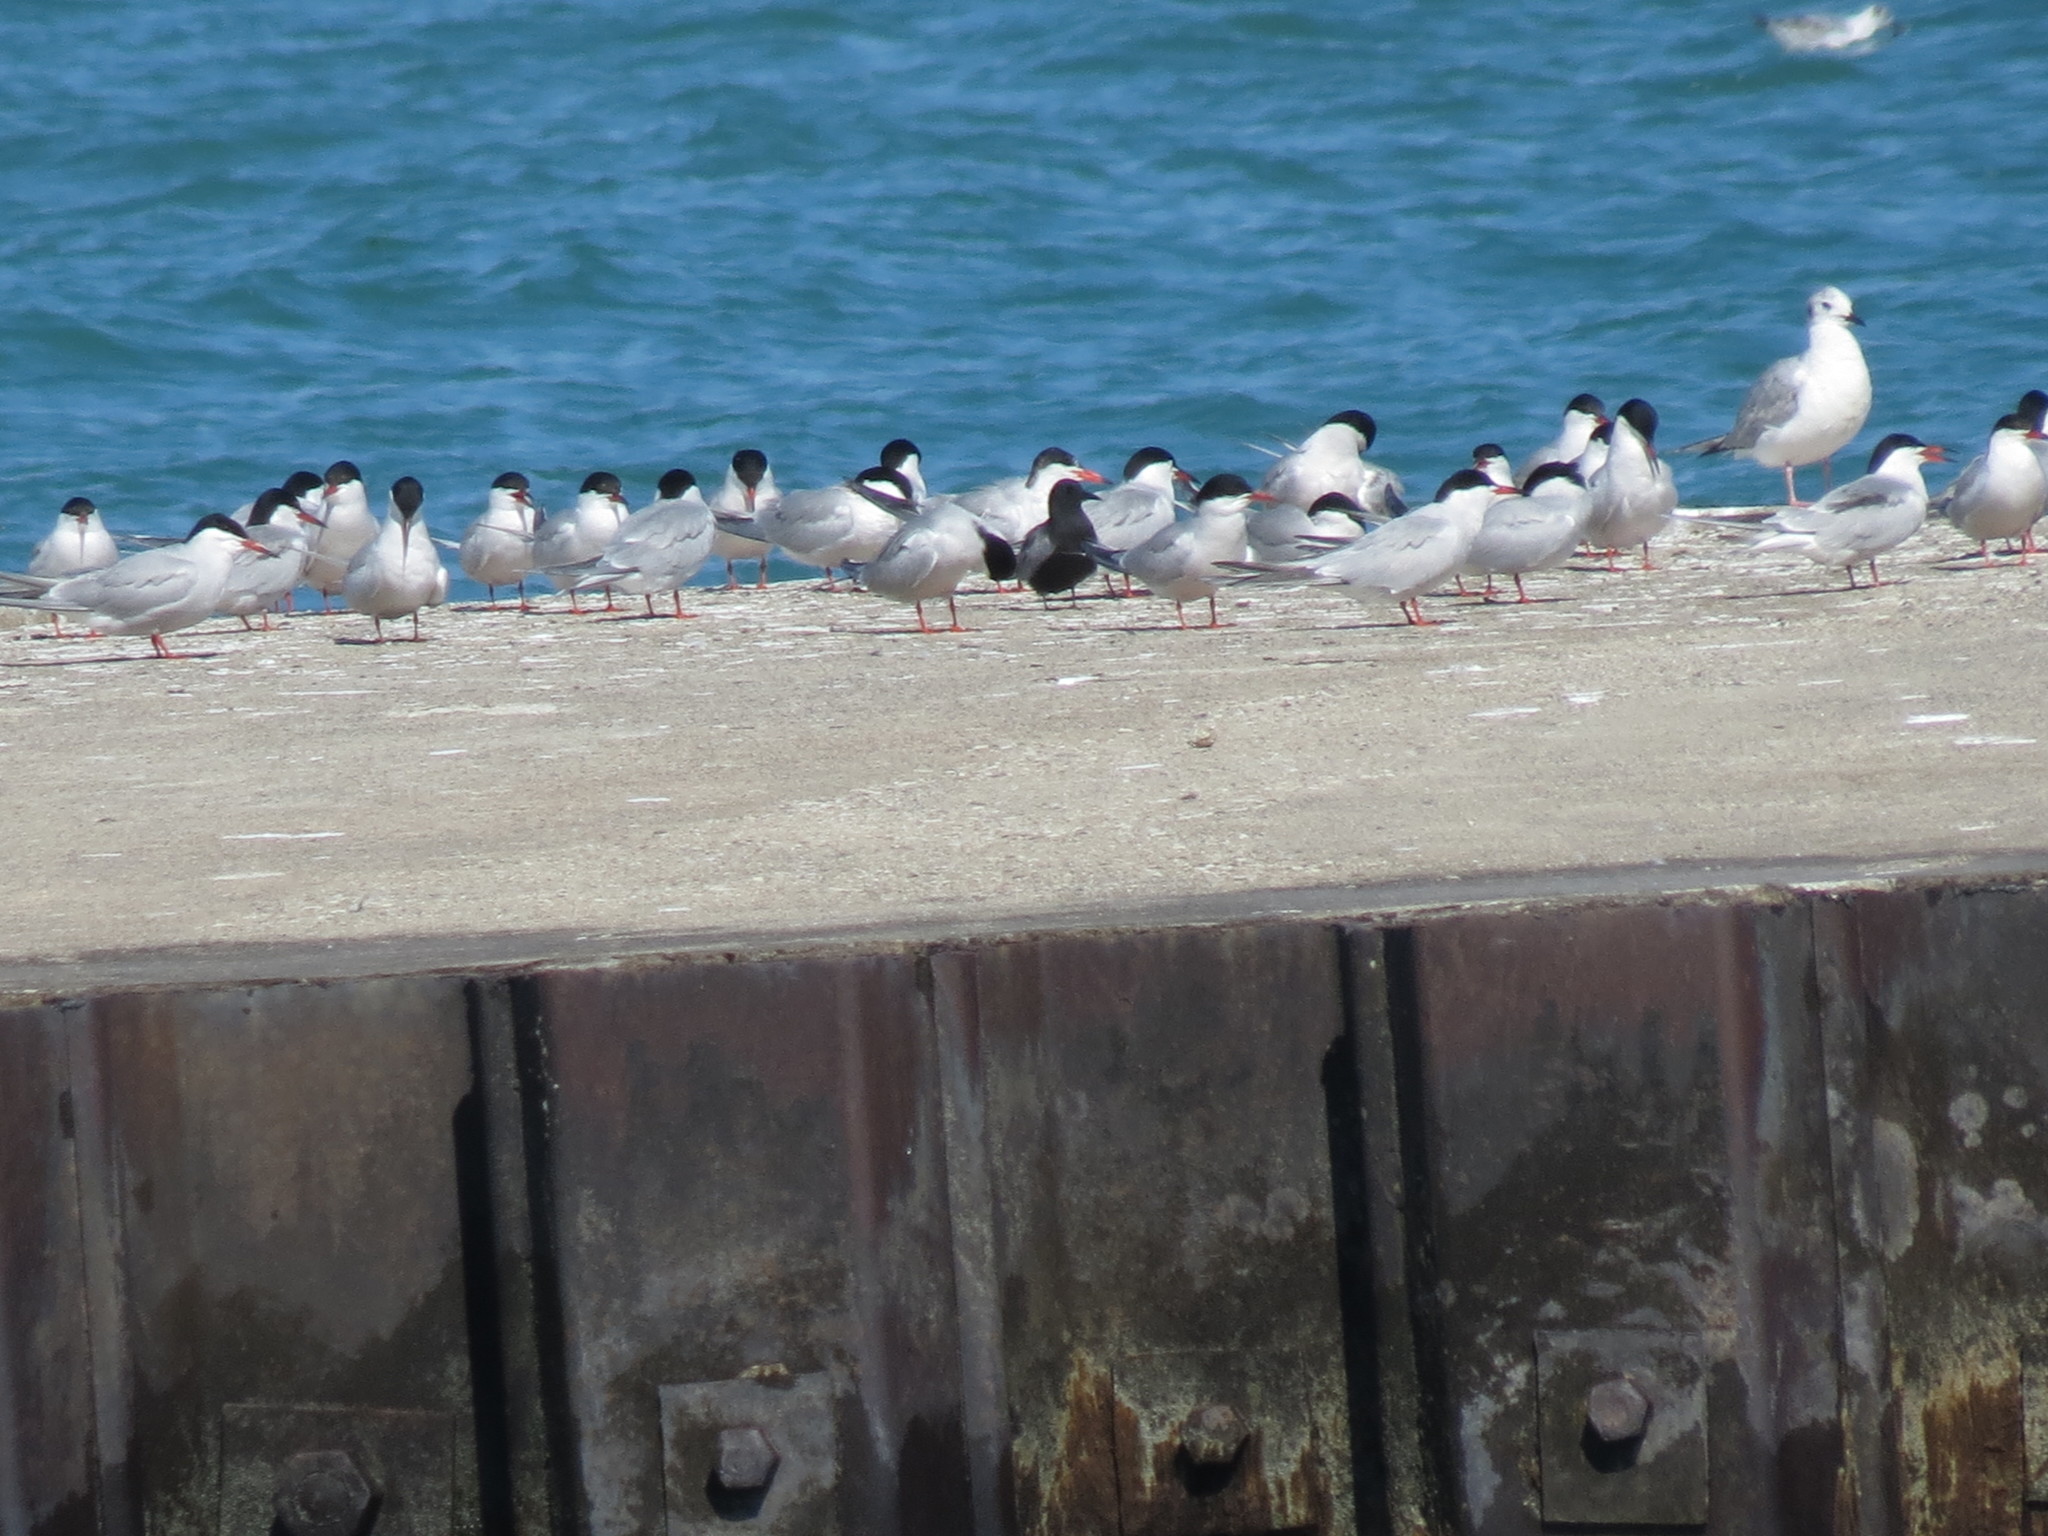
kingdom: Animalia
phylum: Chordata
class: Aves
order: Charadriiformes
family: Laridae
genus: Sterna
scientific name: Sterna hirundo
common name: Common tern
